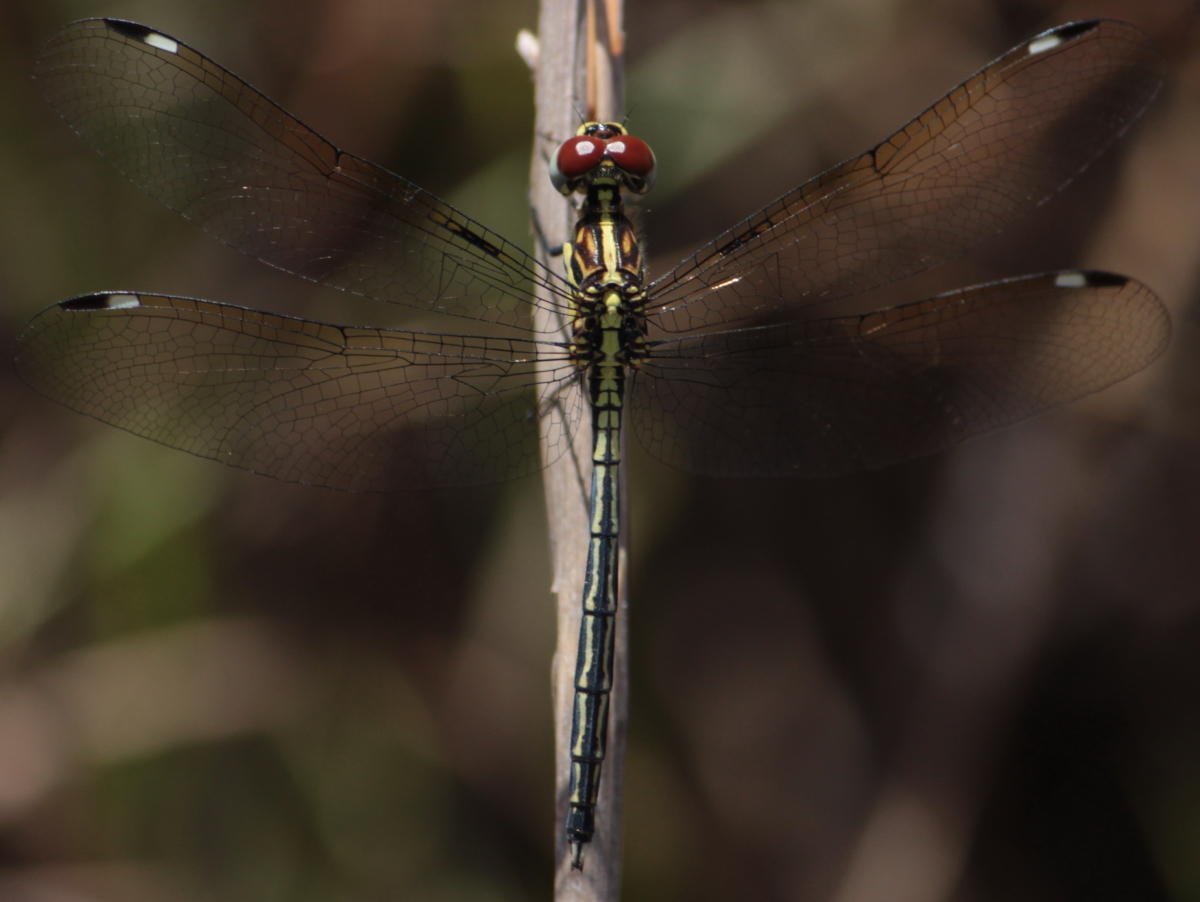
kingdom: Animalia
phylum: Arthropoda
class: Insecta
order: Odonata
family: Libellulidae
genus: Hemistigma
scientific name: Hemistigma albipunctum
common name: African pied-spot
